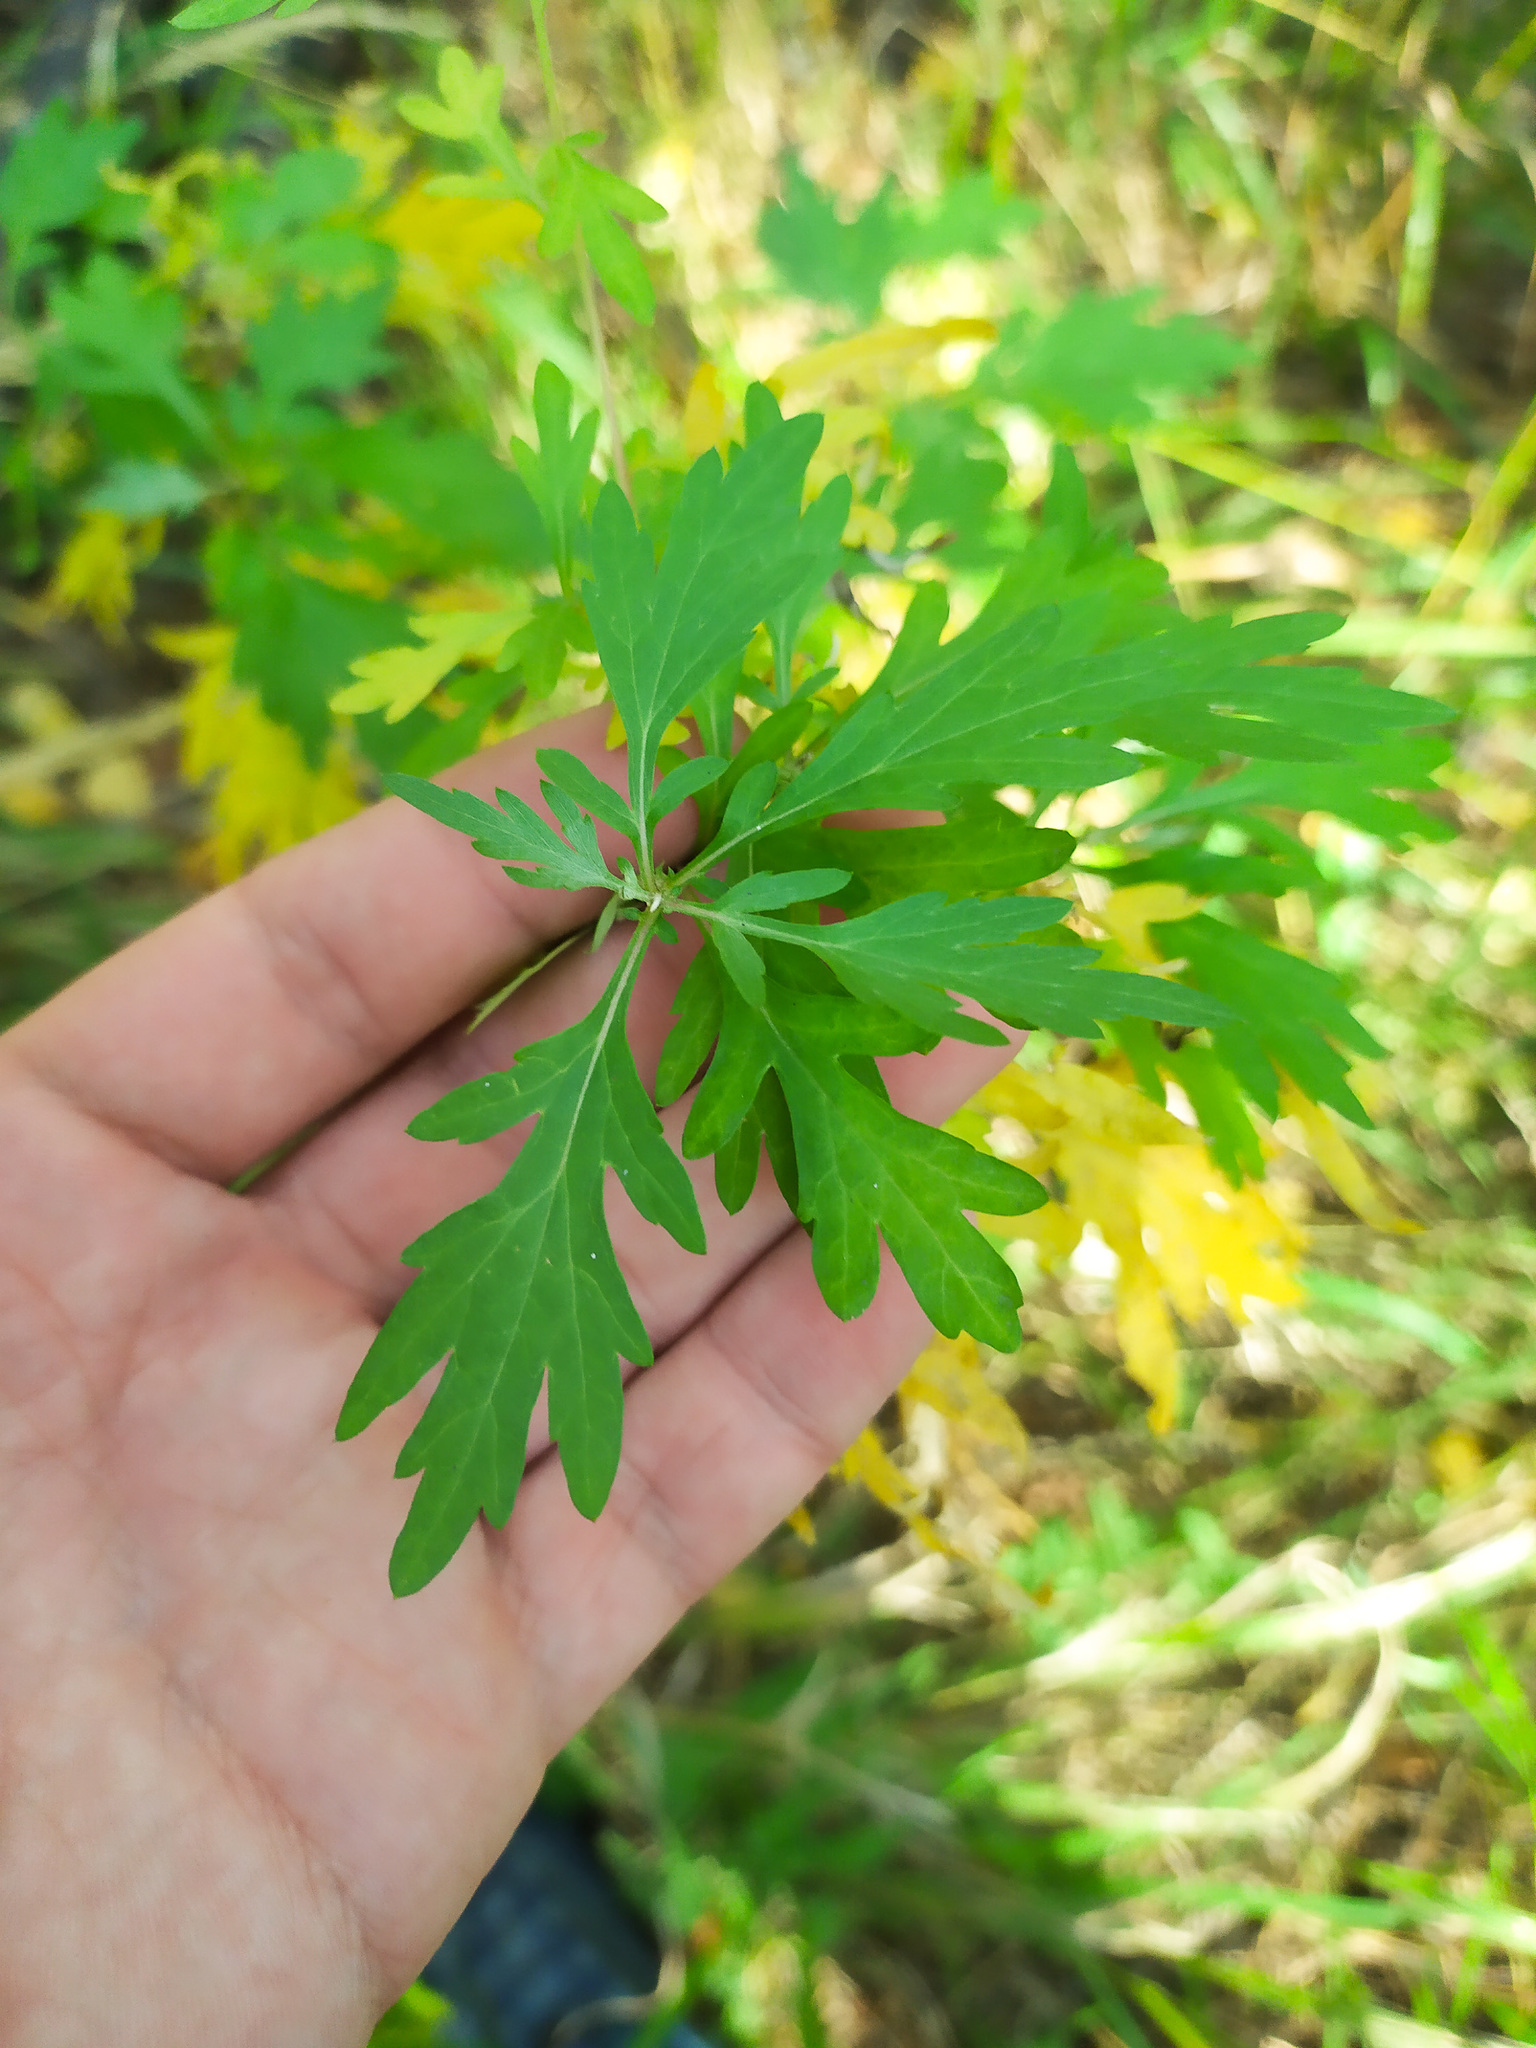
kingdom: Plantae
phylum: Tracheophyta
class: Magnoliopsida
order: Asterales
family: Asteraceae
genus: Artemisia
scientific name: Artemisia vulgaris
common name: Mugwort
